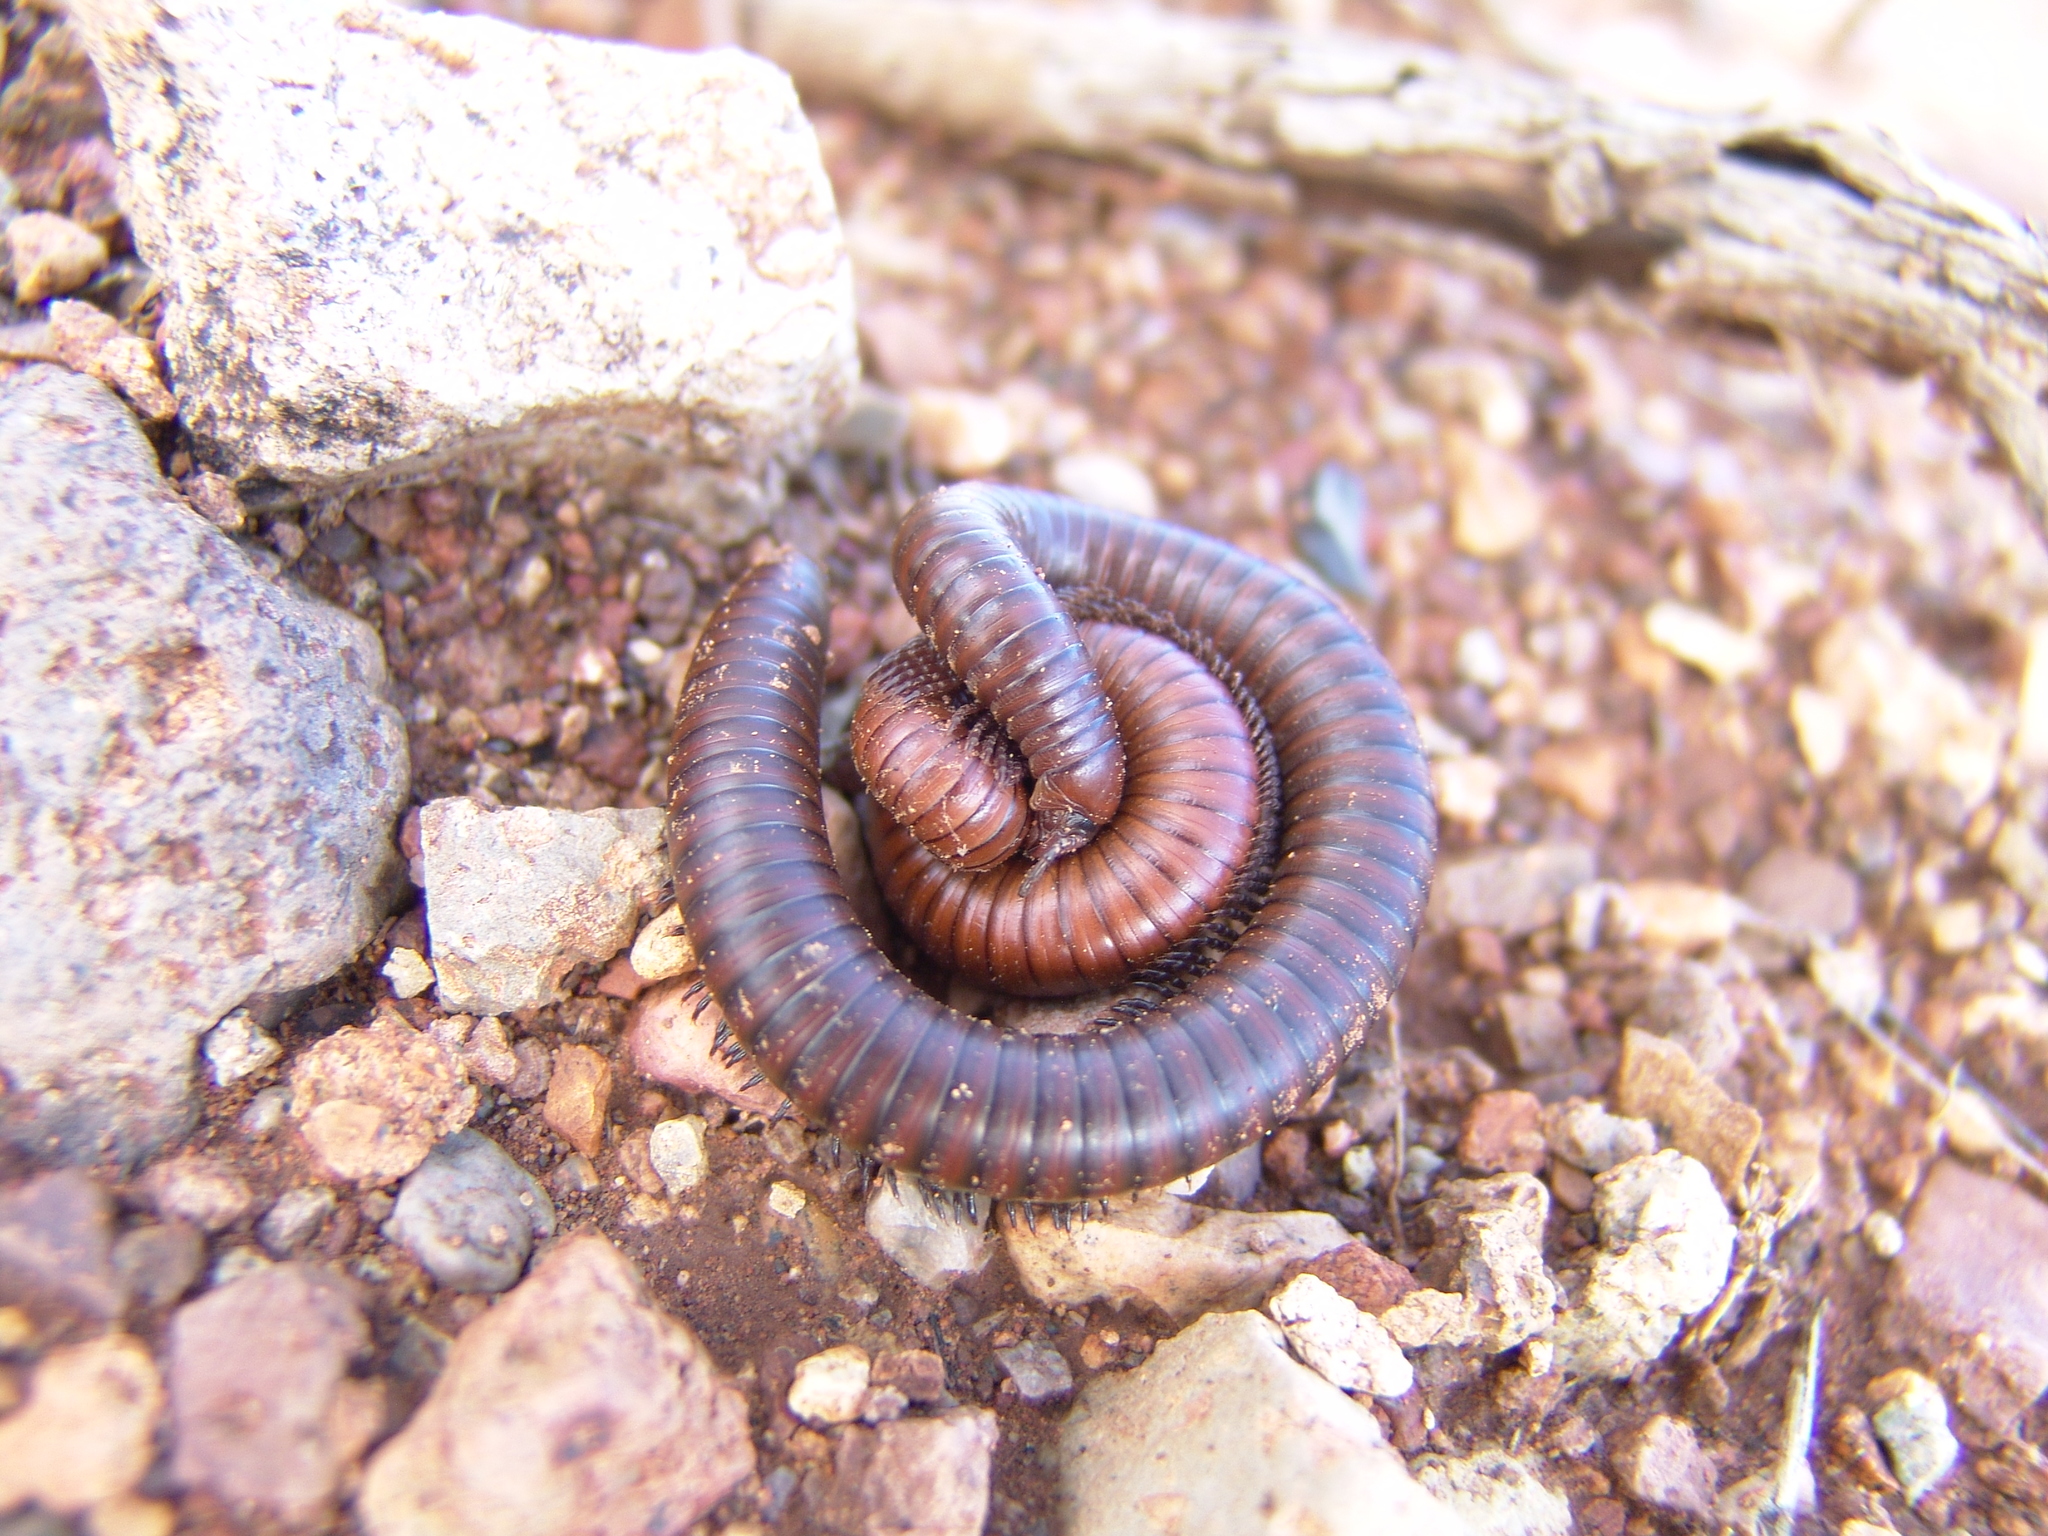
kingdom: Animalia
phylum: Arthropoda
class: Diplopoda
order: Spirostreptida
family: Spirostreptidae
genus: Orthoporus
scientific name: Orthoporus ornatus
